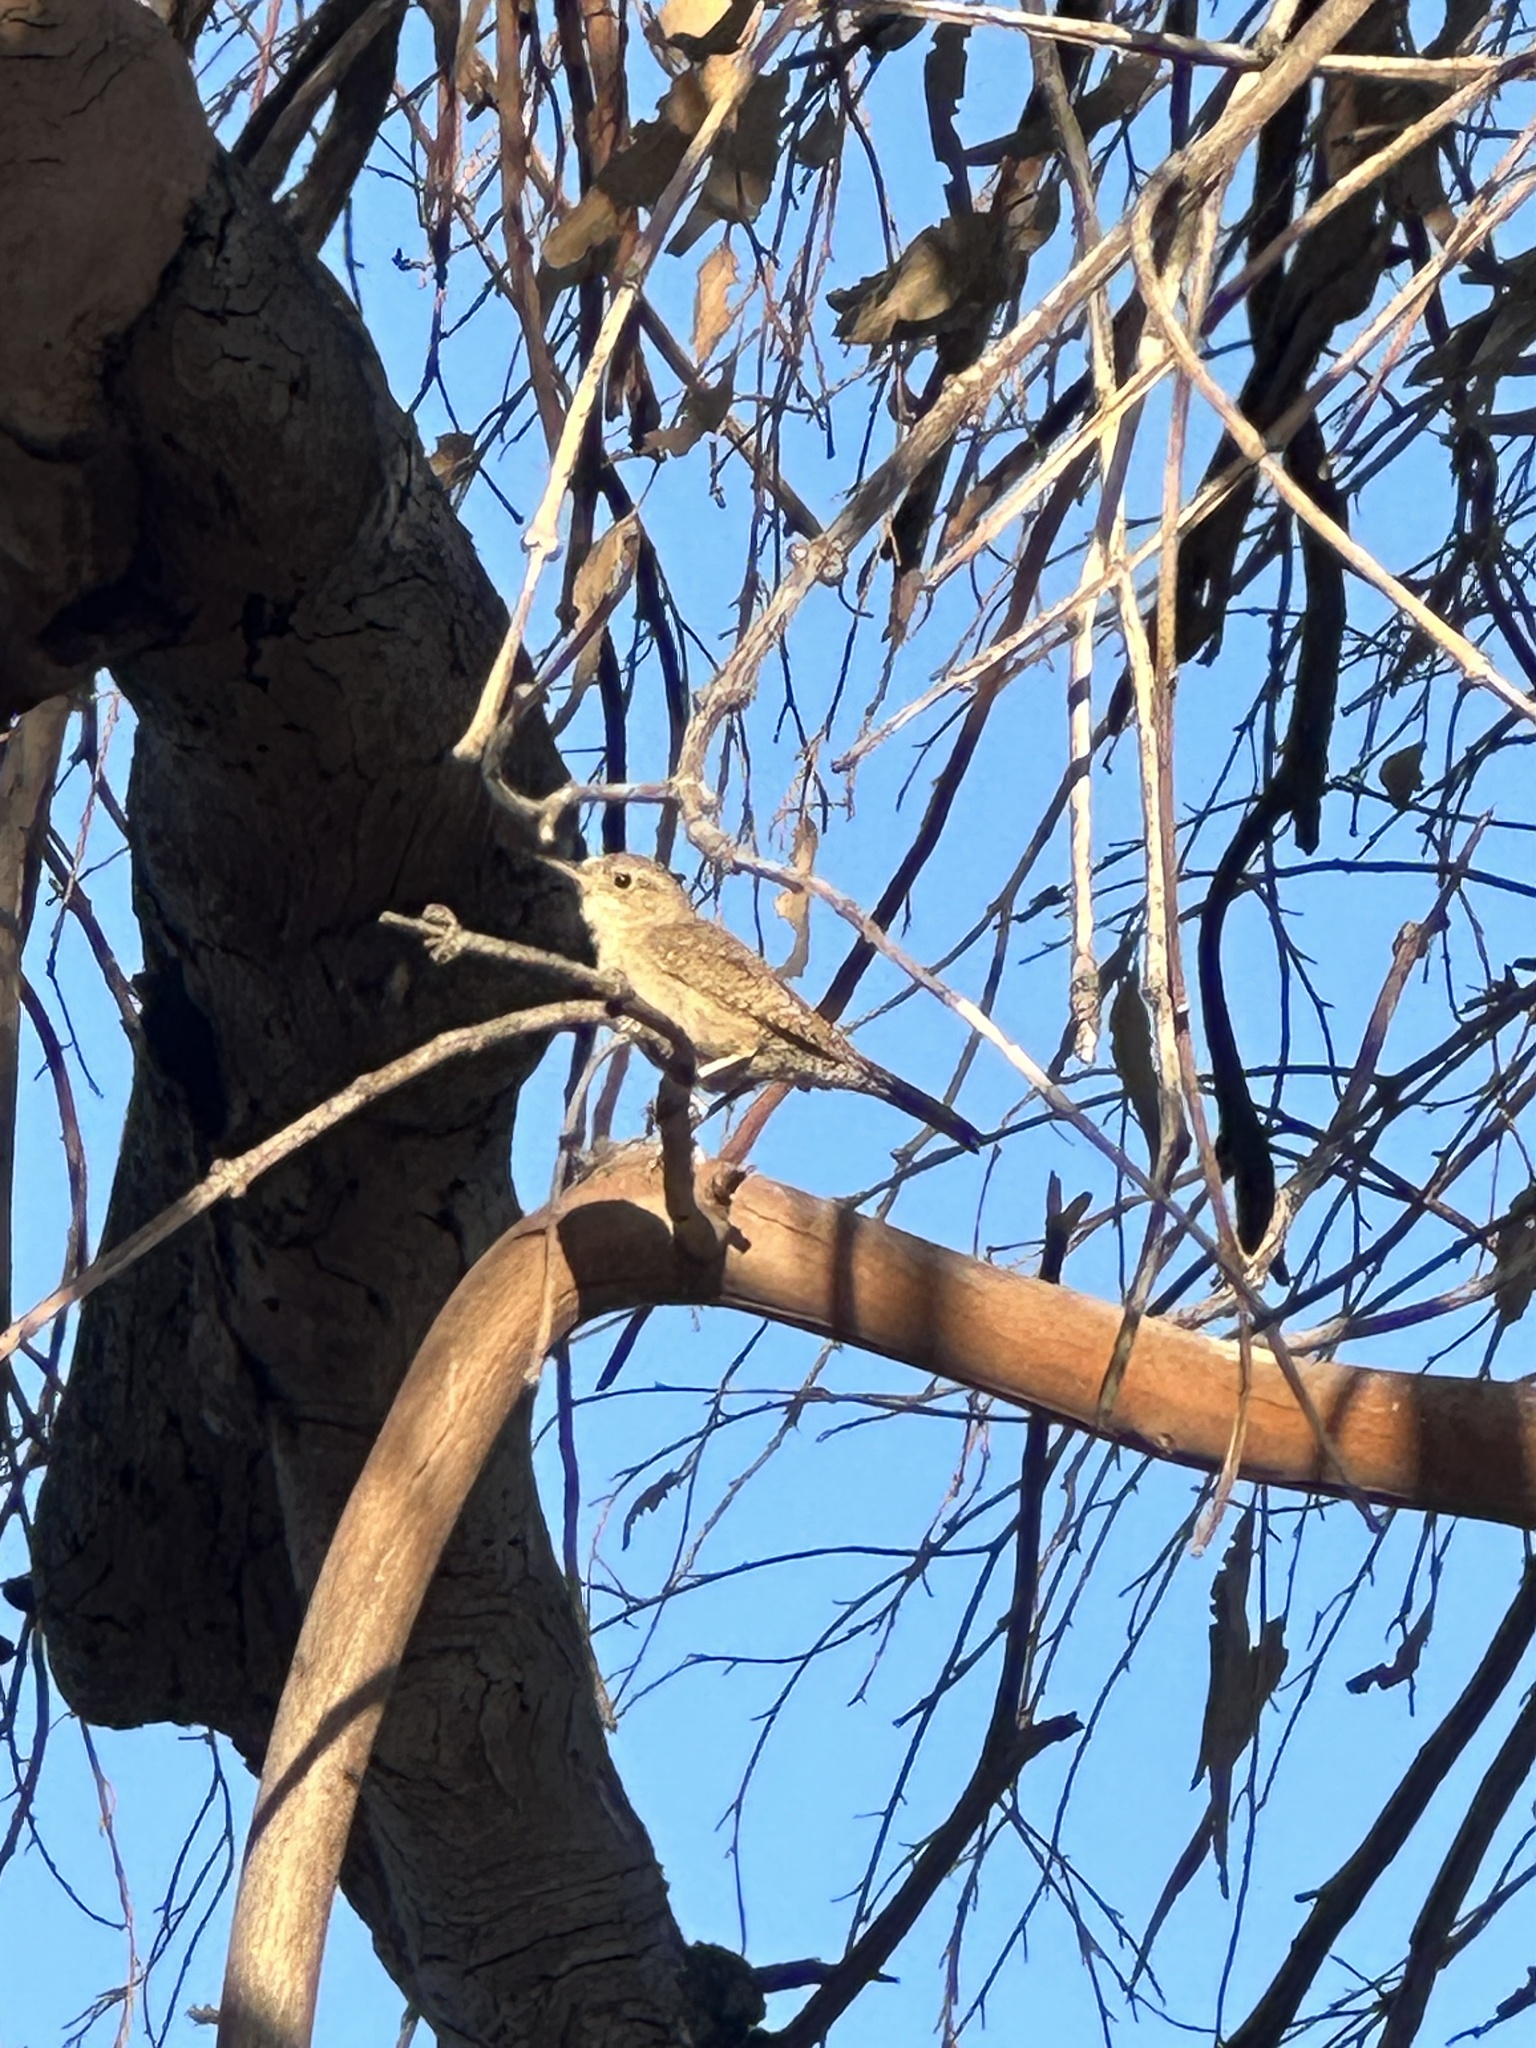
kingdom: Animalia
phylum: Chordata
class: Aves
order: Passeriformes
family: Troglodytidae
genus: Troglodytes
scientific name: Troglodytes aedon
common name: House wren
